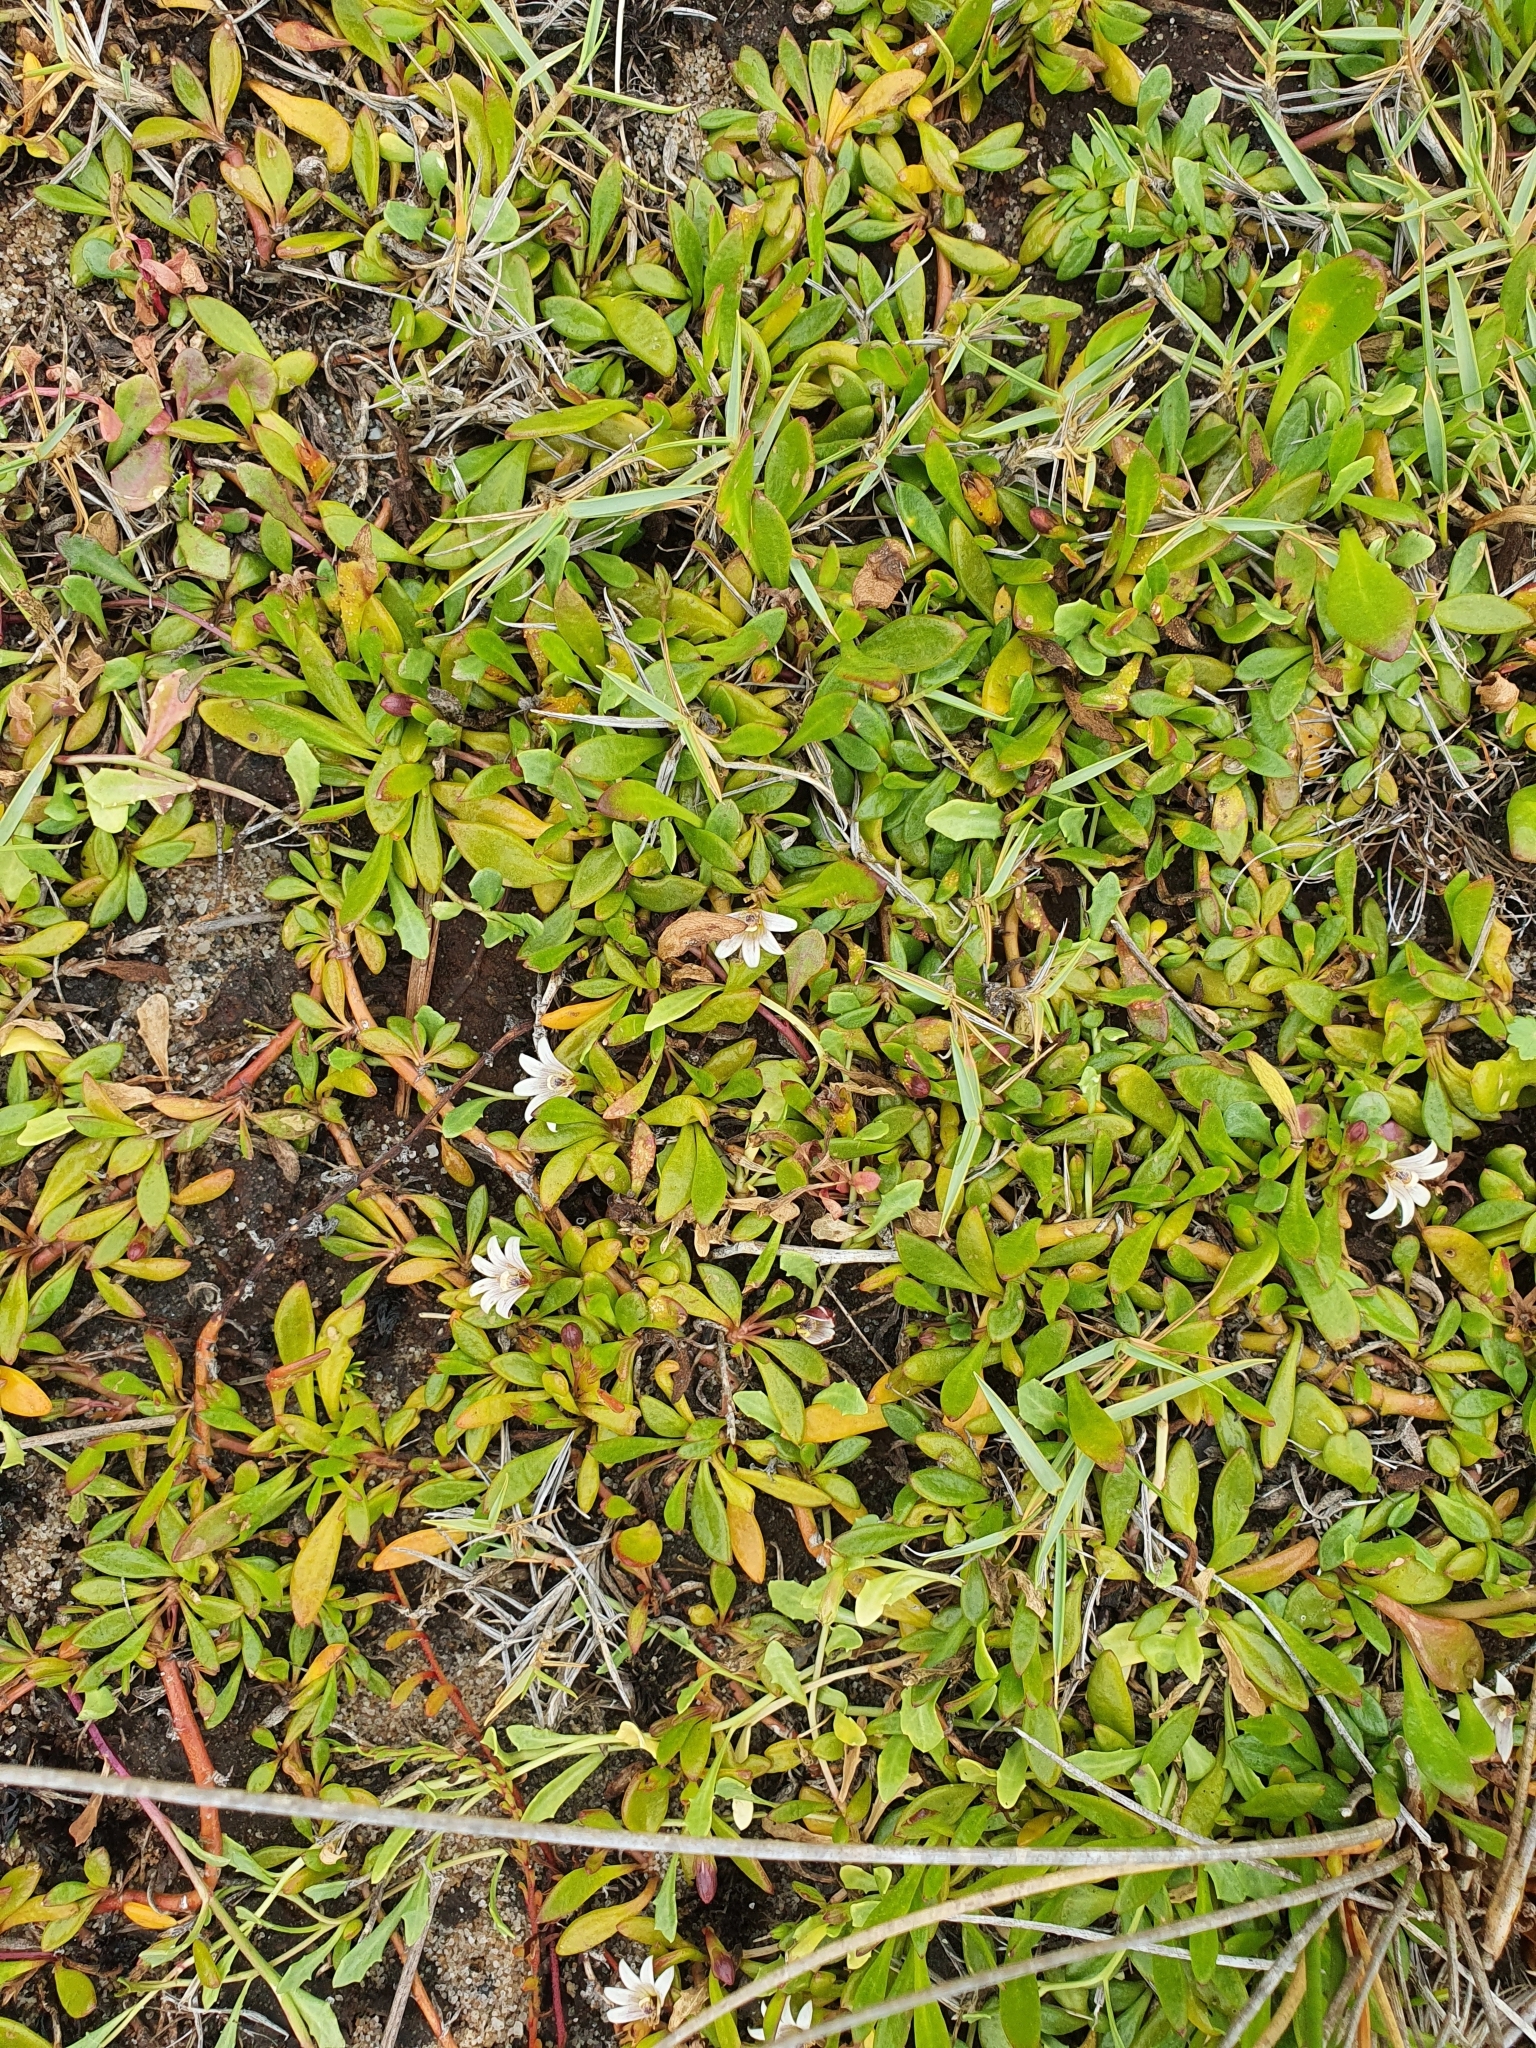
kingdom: Plantae
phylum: Tracheophyta
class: Magnoliopsida
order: Asterales
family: Goodeniaceae
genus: Goodenia
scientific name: Goodenia radicans
